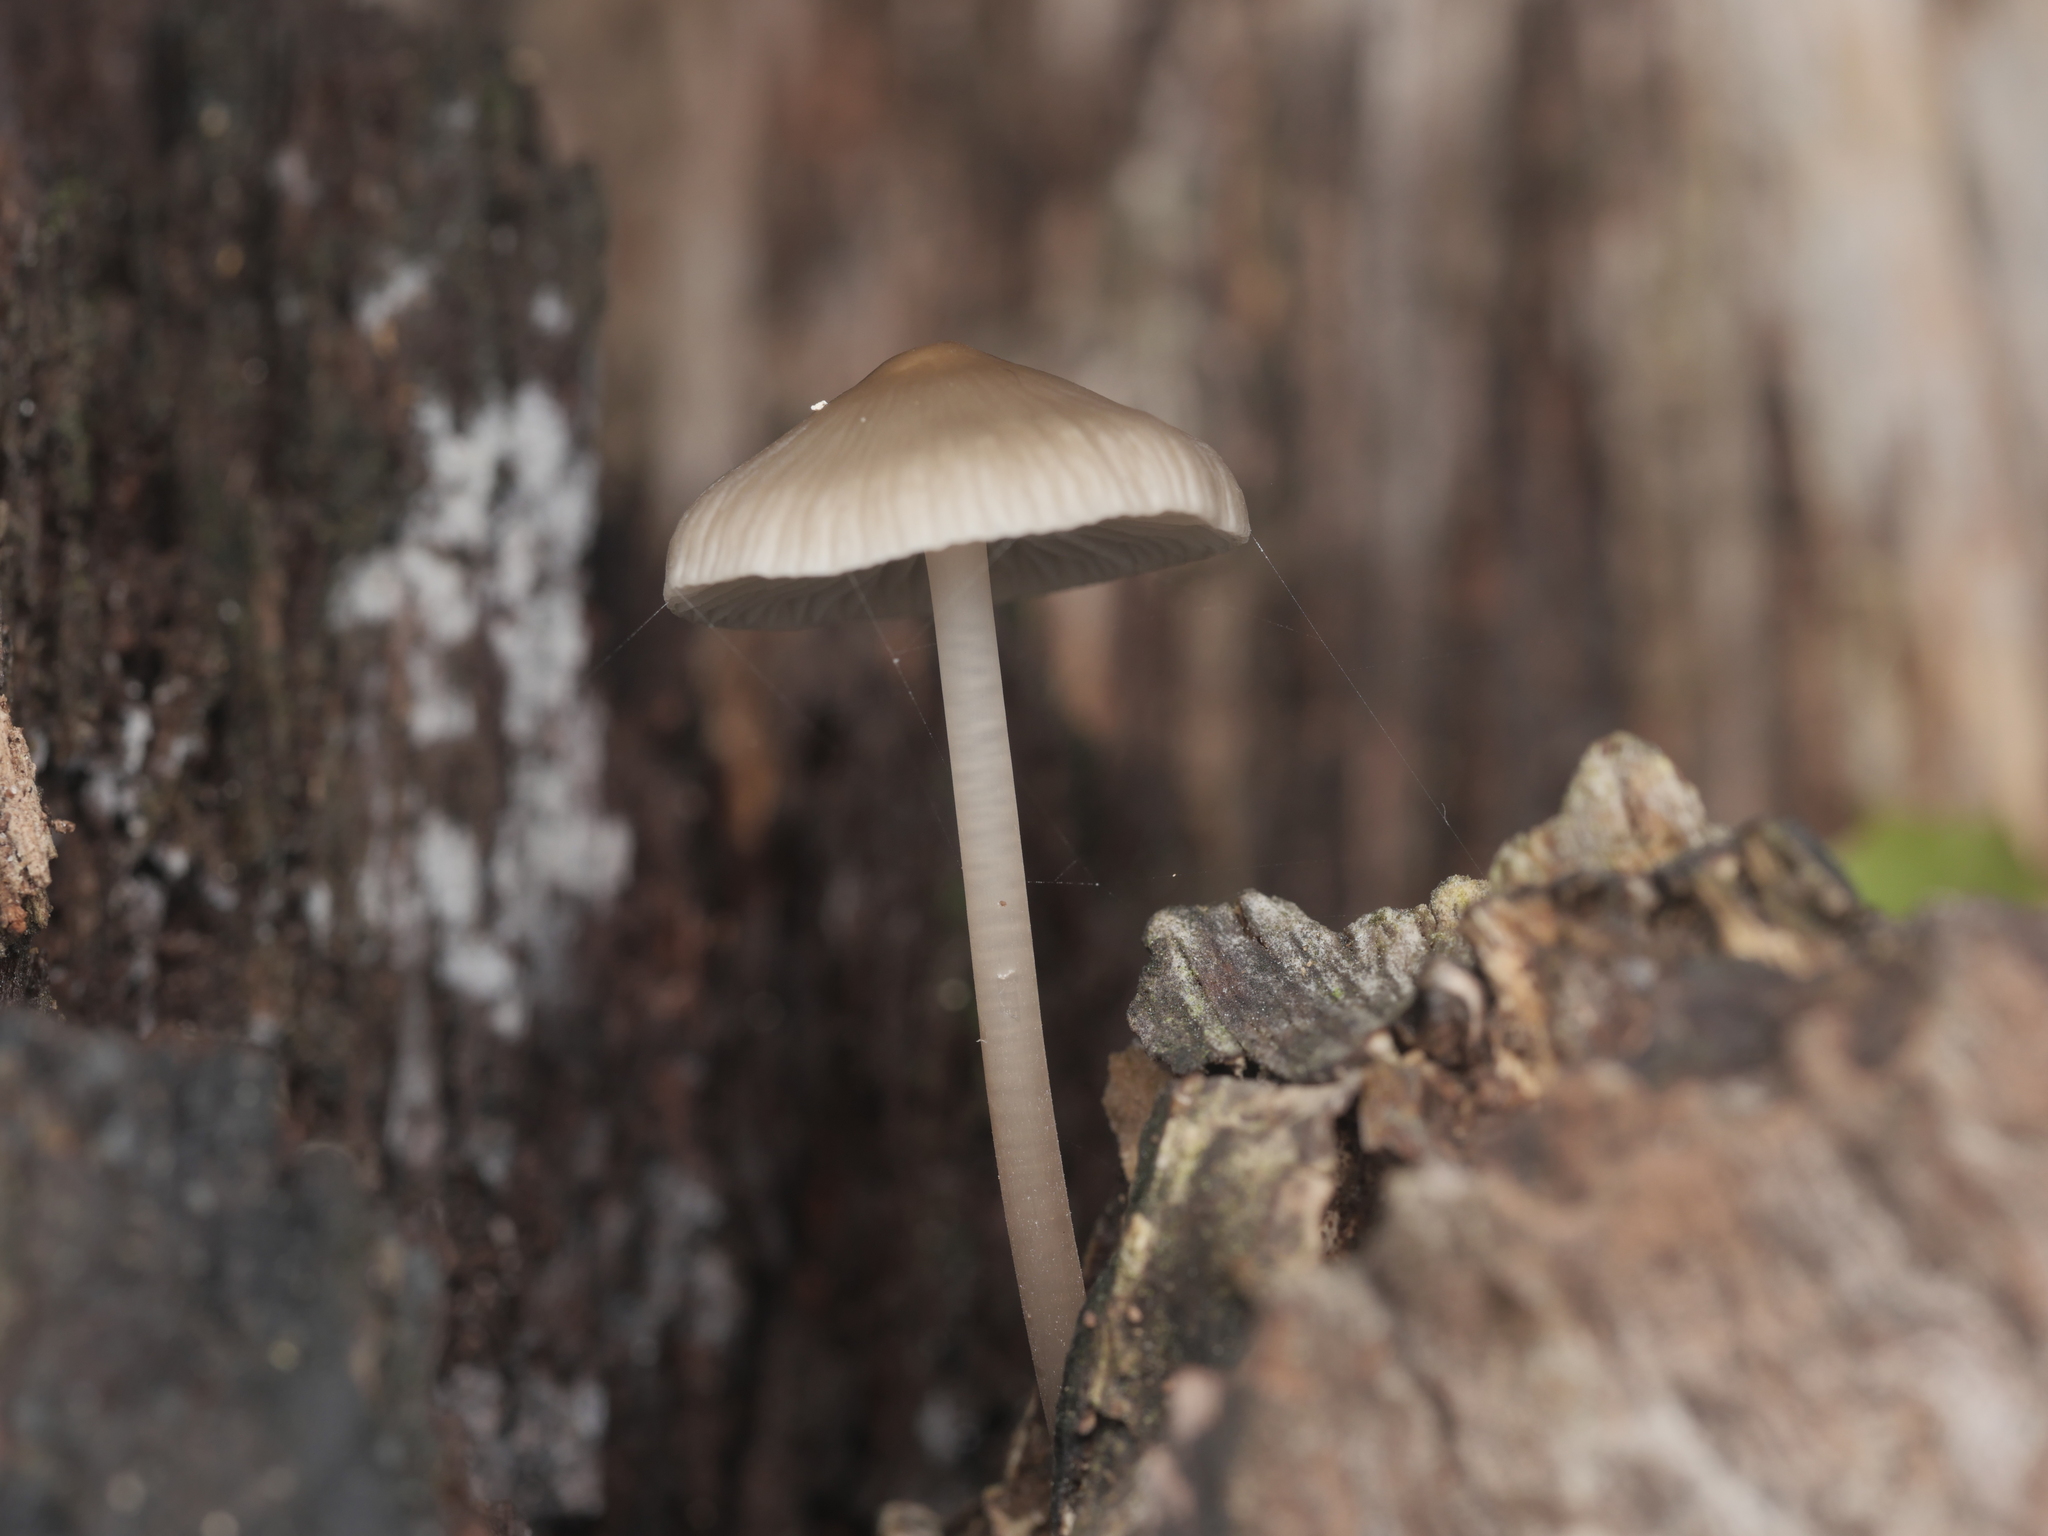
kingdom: Fungi
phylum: Basidiomycota
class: Agaricomycetes
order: Agaricales
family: Mycenaceae
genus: Mycena
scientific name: Mycena galericulata
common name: Bonnet mycena
